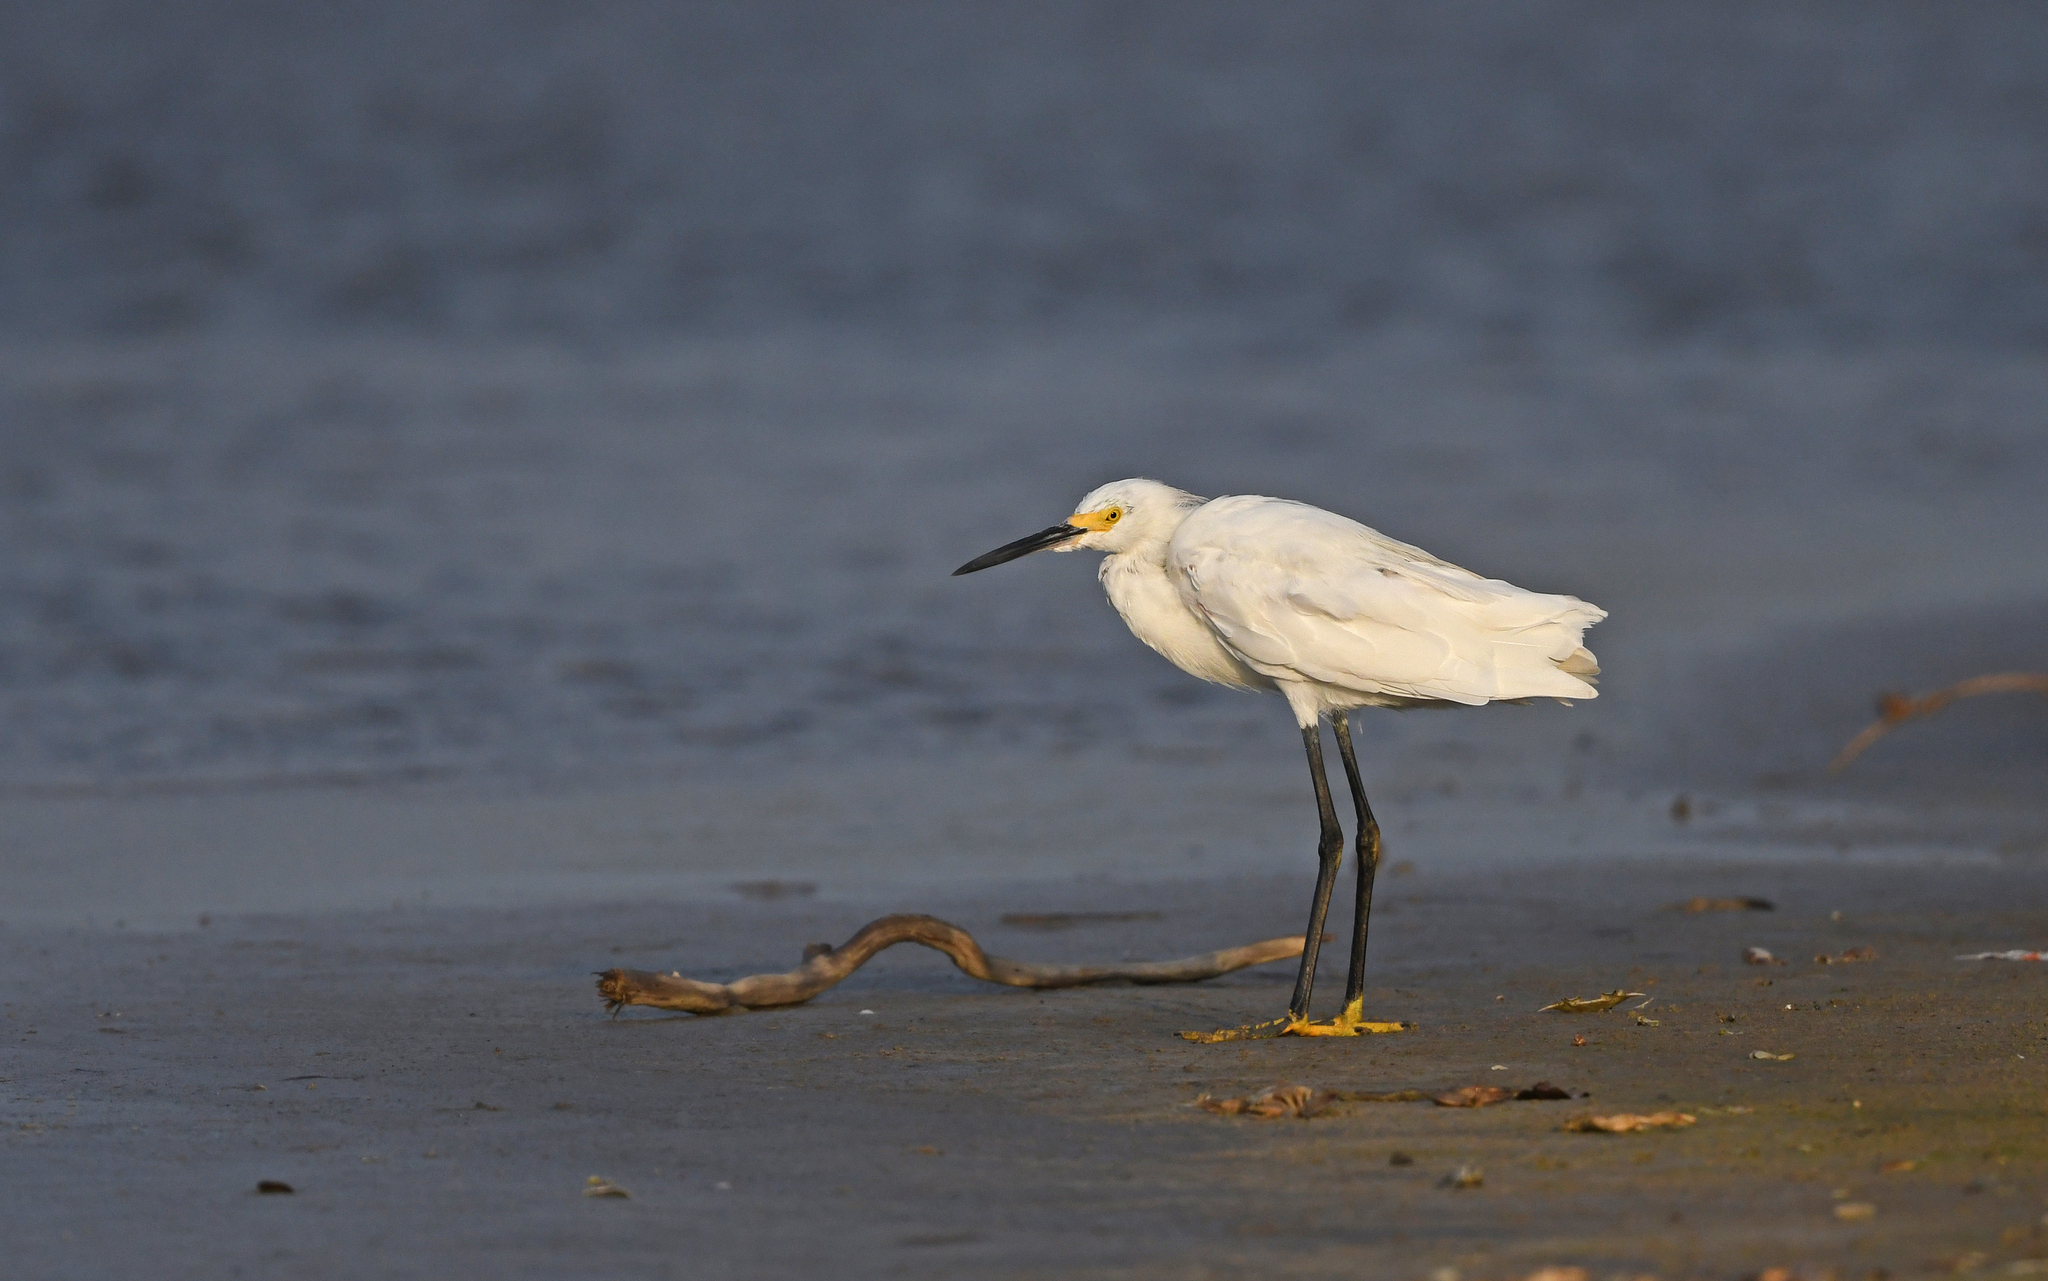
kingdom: Animalia
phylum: Chordata
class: Aves
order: Pelecaniformes
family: Ardeidae
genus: Egretta
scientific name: Egretta thula
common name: Snowy egret
